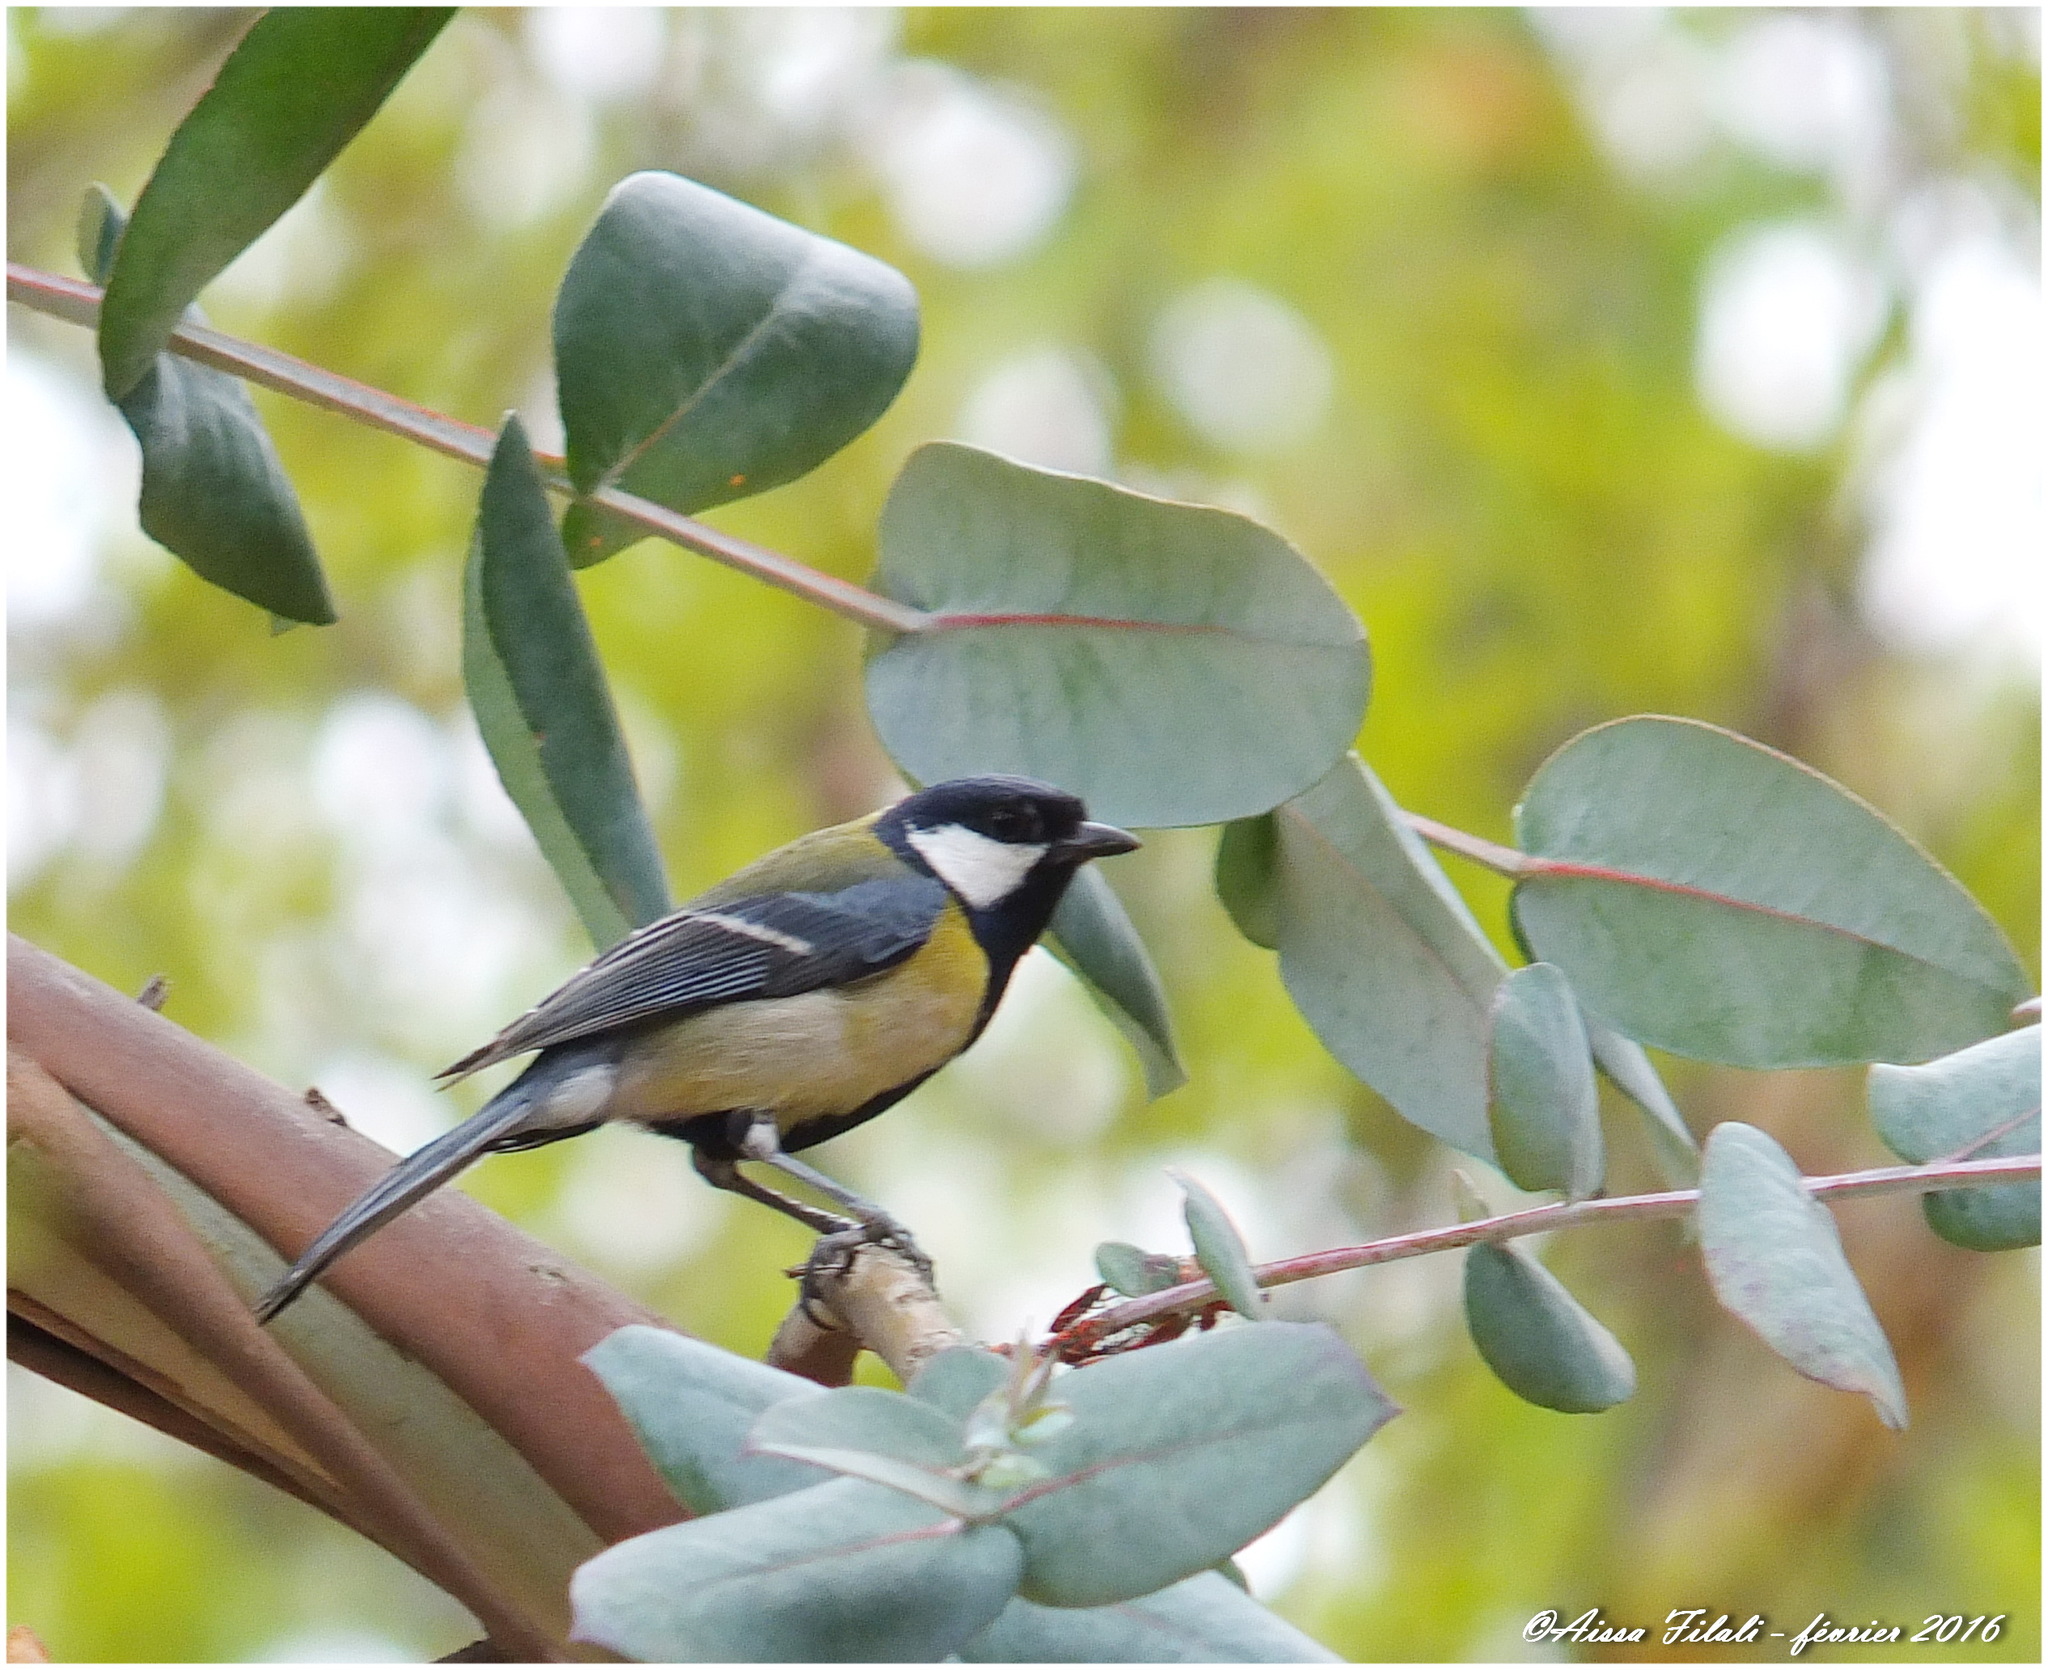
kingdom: Animalia
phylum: Chordata
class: Aves
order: Passeriformes
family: Paridae
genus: Parus
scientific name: Parus major
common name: Great tit
